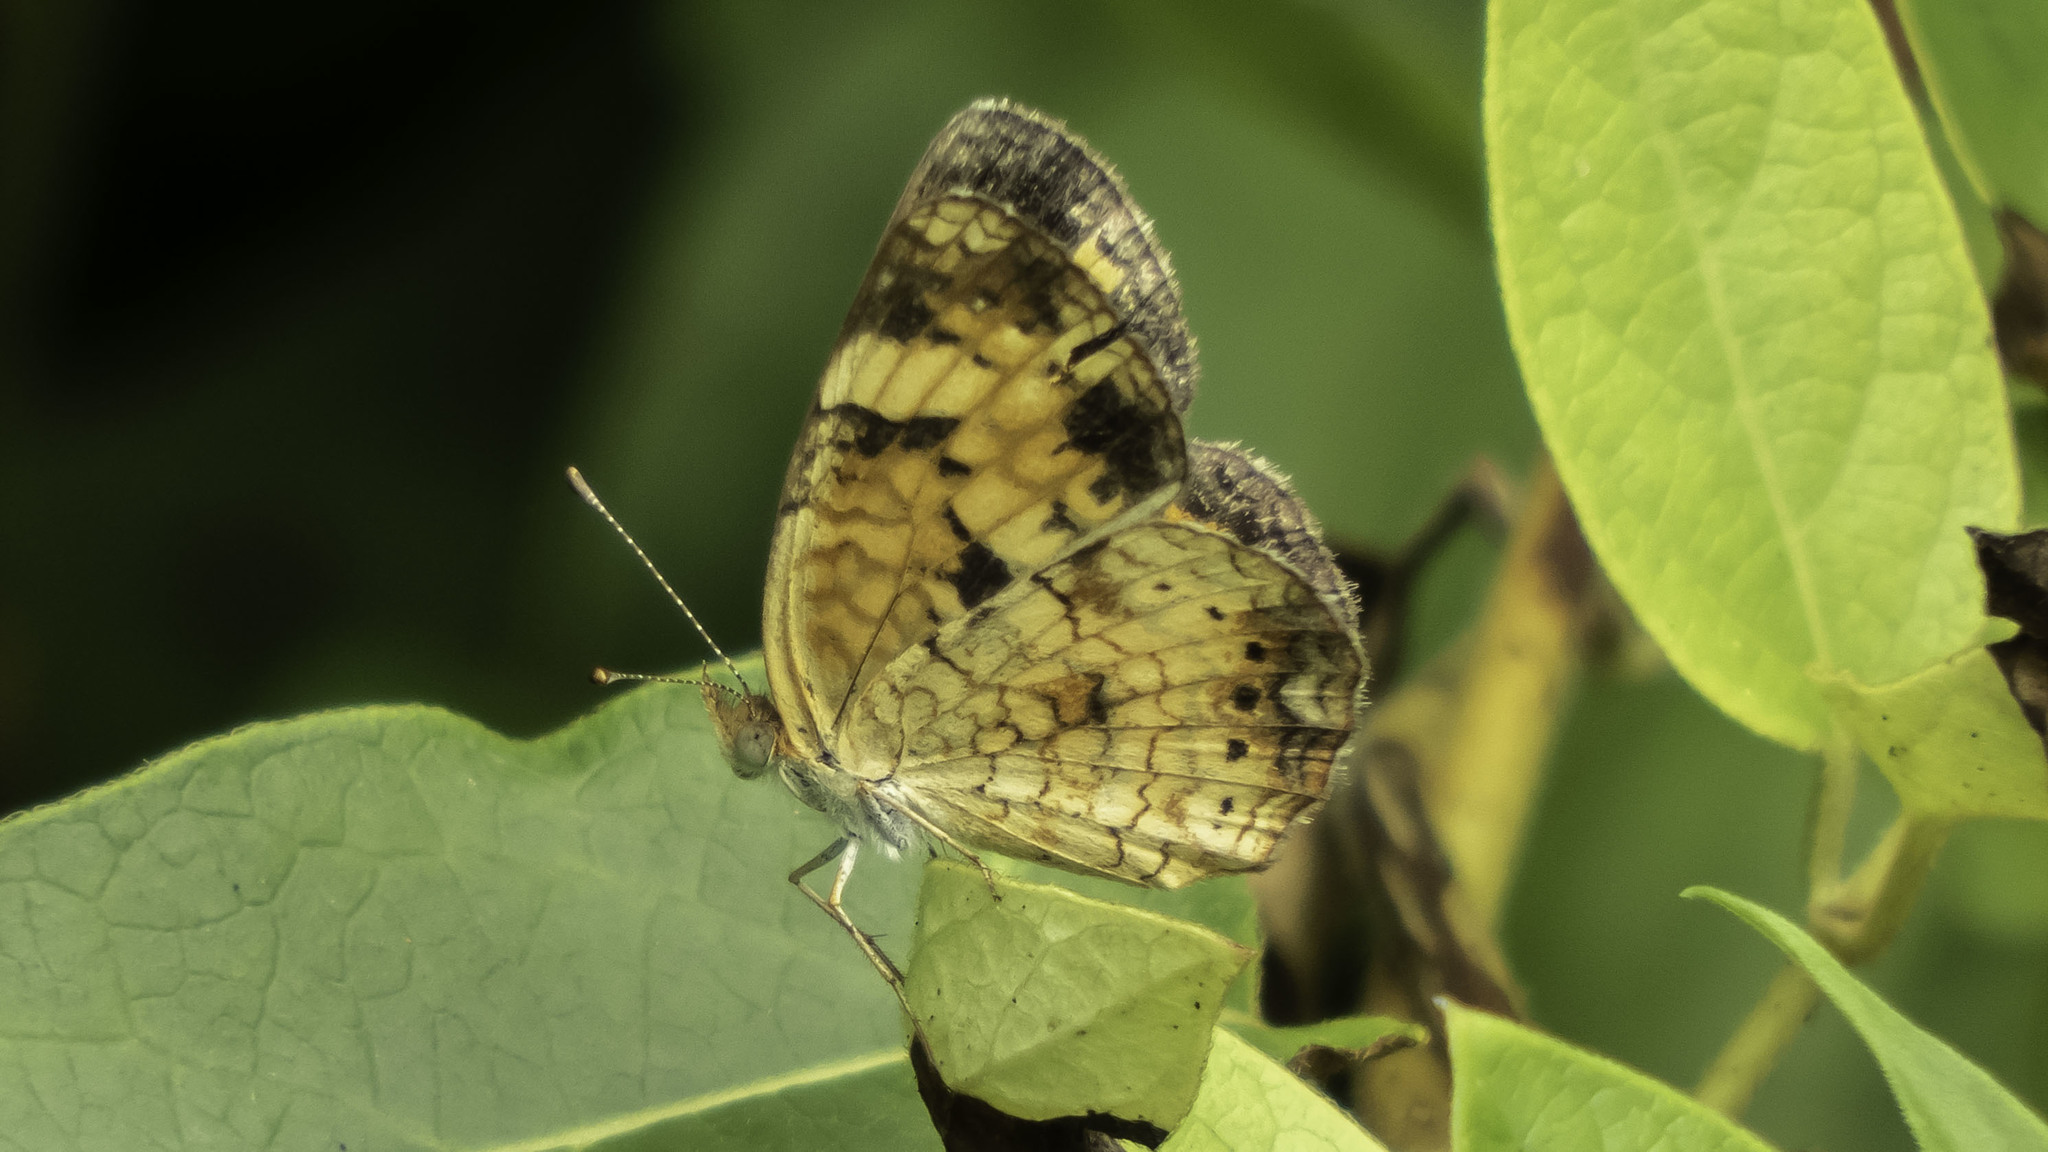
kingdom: Animalia
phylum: Arthropoda
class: Insecta
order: Lepidoptera
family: Nymphalidae
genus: Phyciodes
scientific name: Phyciodes tharos
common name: Pearl crescent
